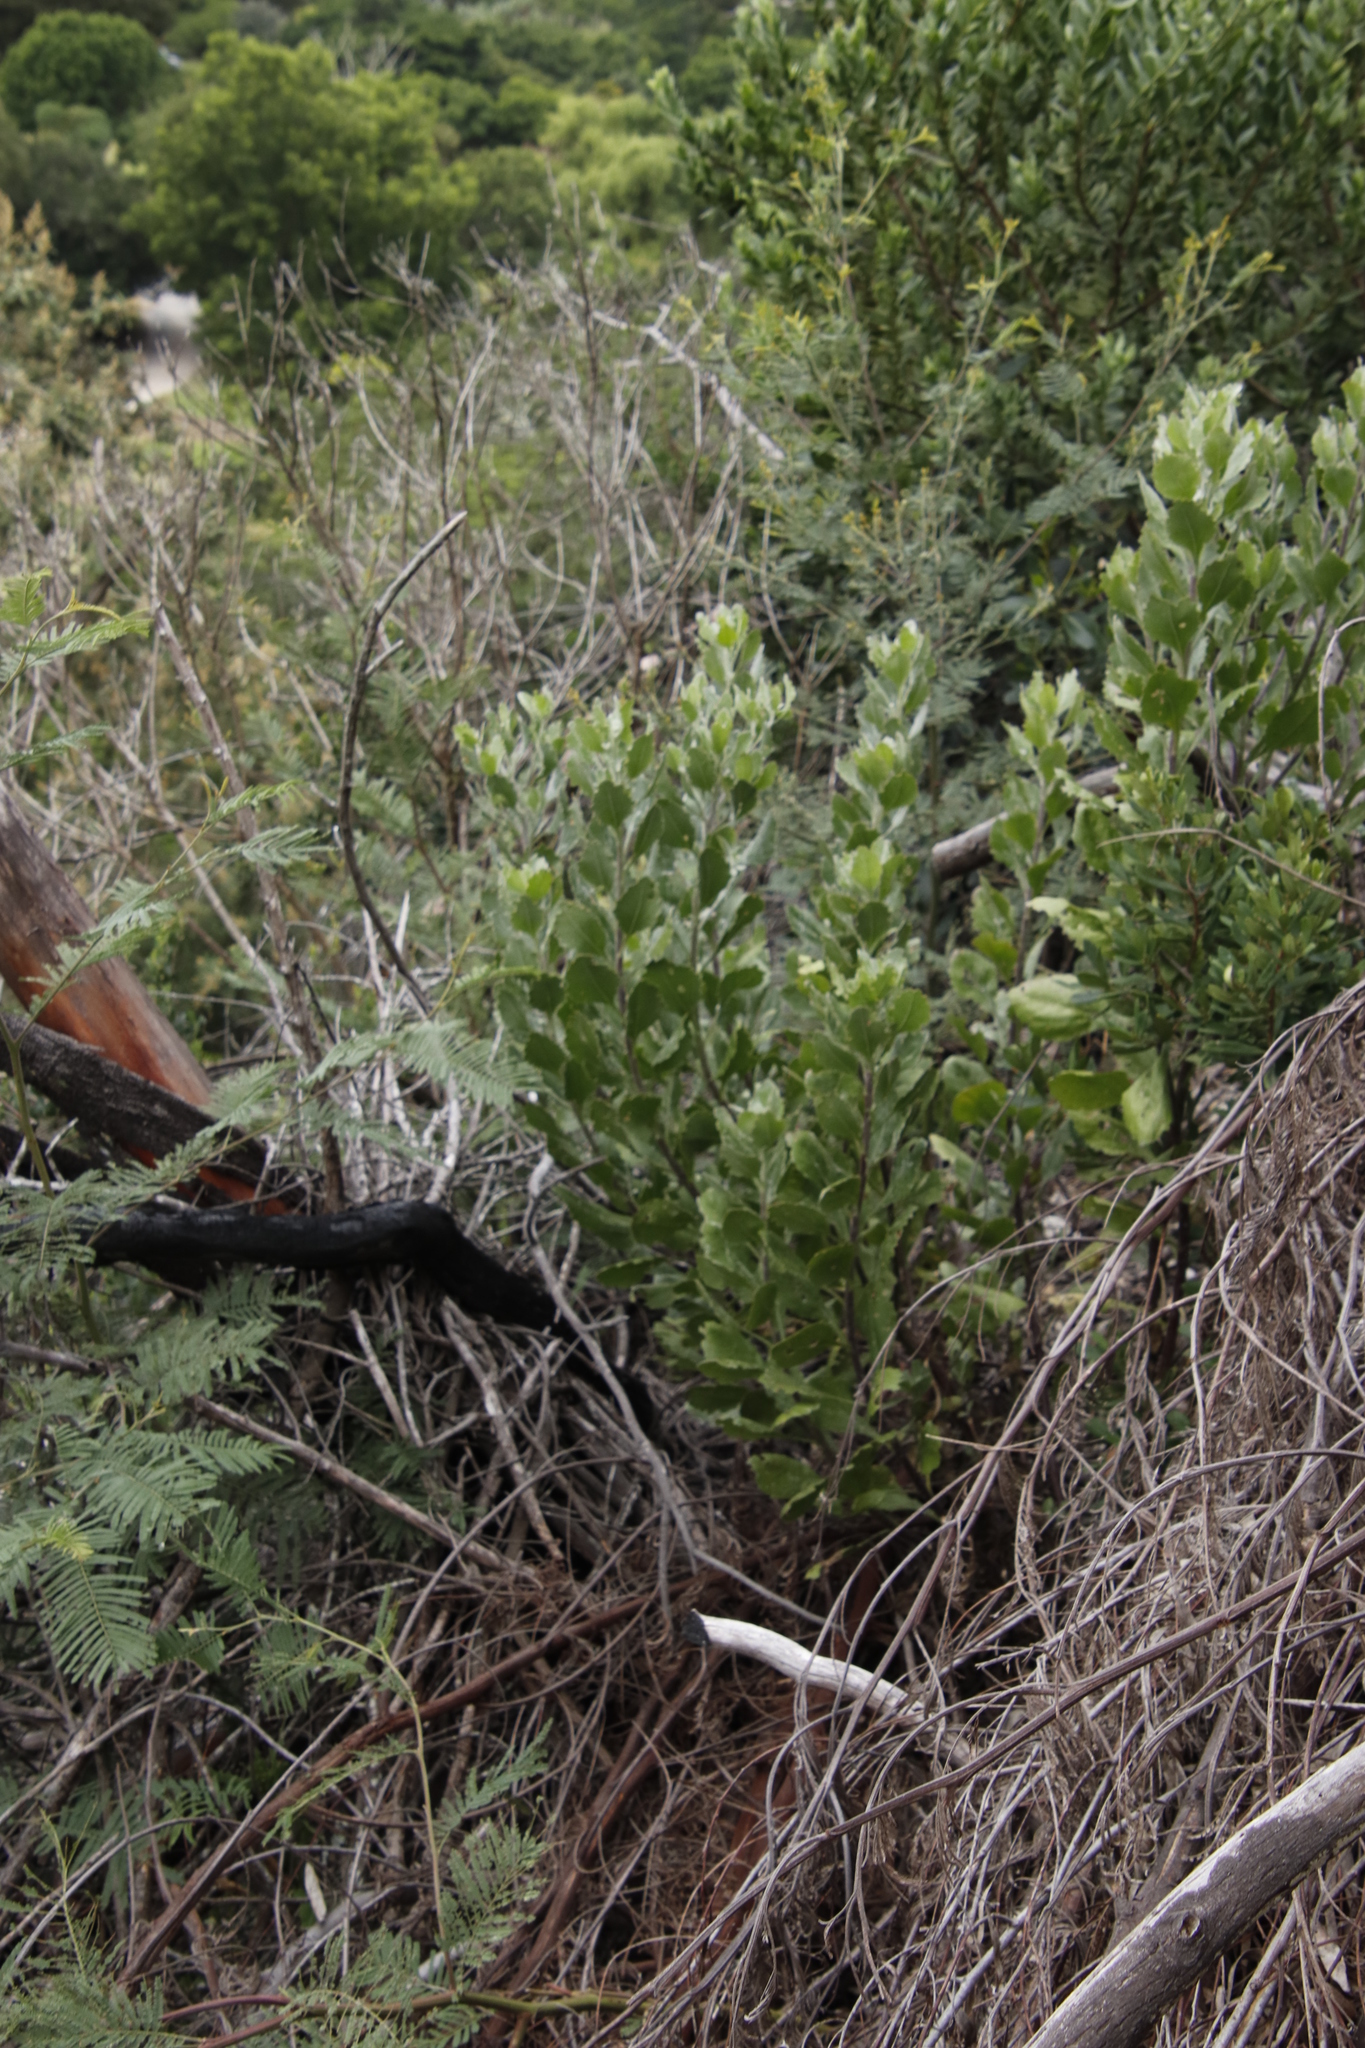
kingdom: Plantae
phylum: Tracheophyta
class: Magnoliopsida
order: Asterales
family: Asteraceae
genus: Osteospermum
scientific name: Osteospermum moniliferum
